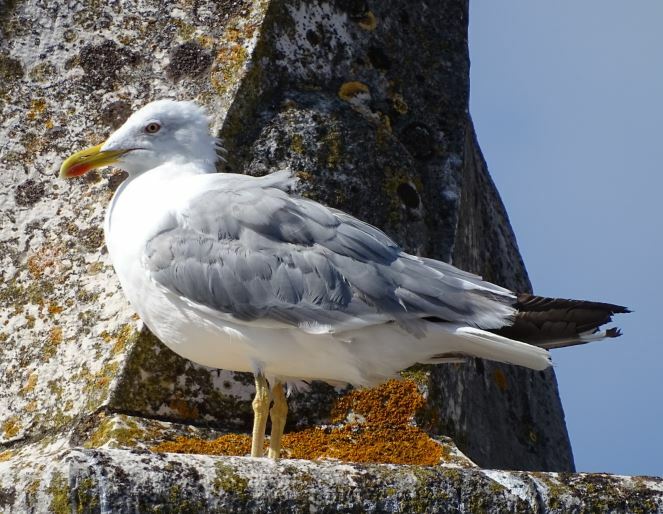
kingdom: Animalia
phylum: Chordata
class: Aves
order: Charadriiformes
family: Laridae
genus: Larus
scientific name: Larus michahellis
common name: Yellow-legged gull
